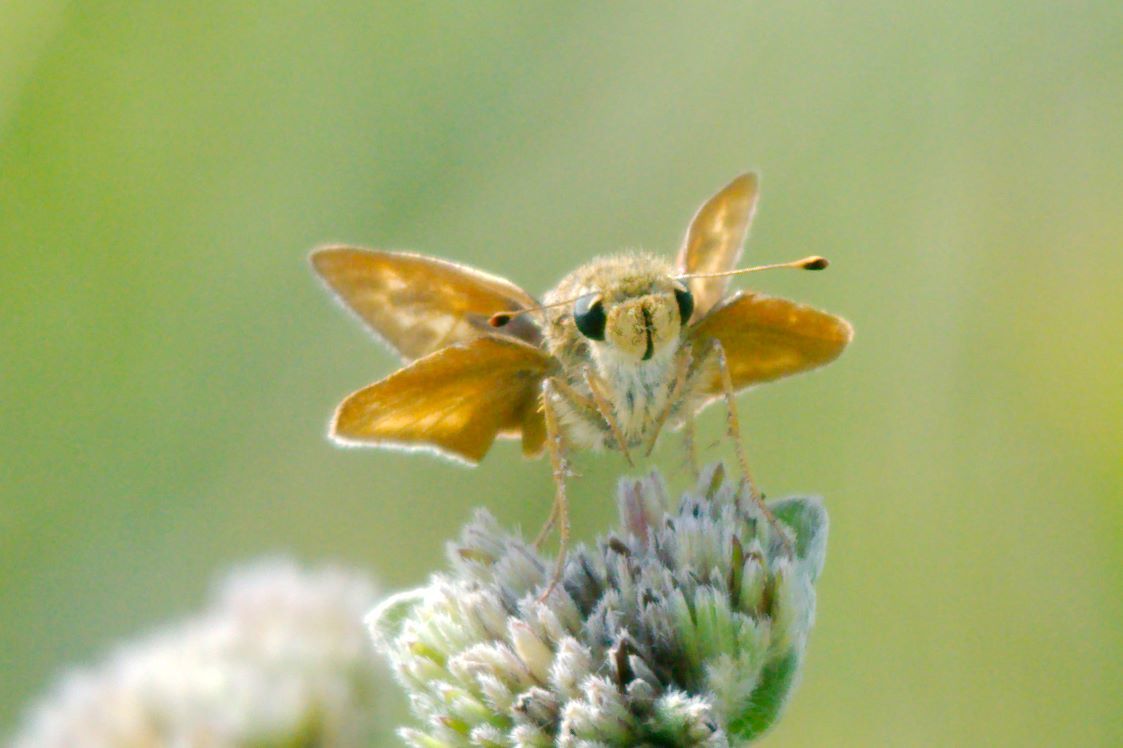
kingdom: Animalia
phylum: Arthropoda
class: Insecta
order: Lepidoptera
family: Hesperiidae
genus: Hesperia
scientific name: Hesperia meskei
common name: Meske's skipper
